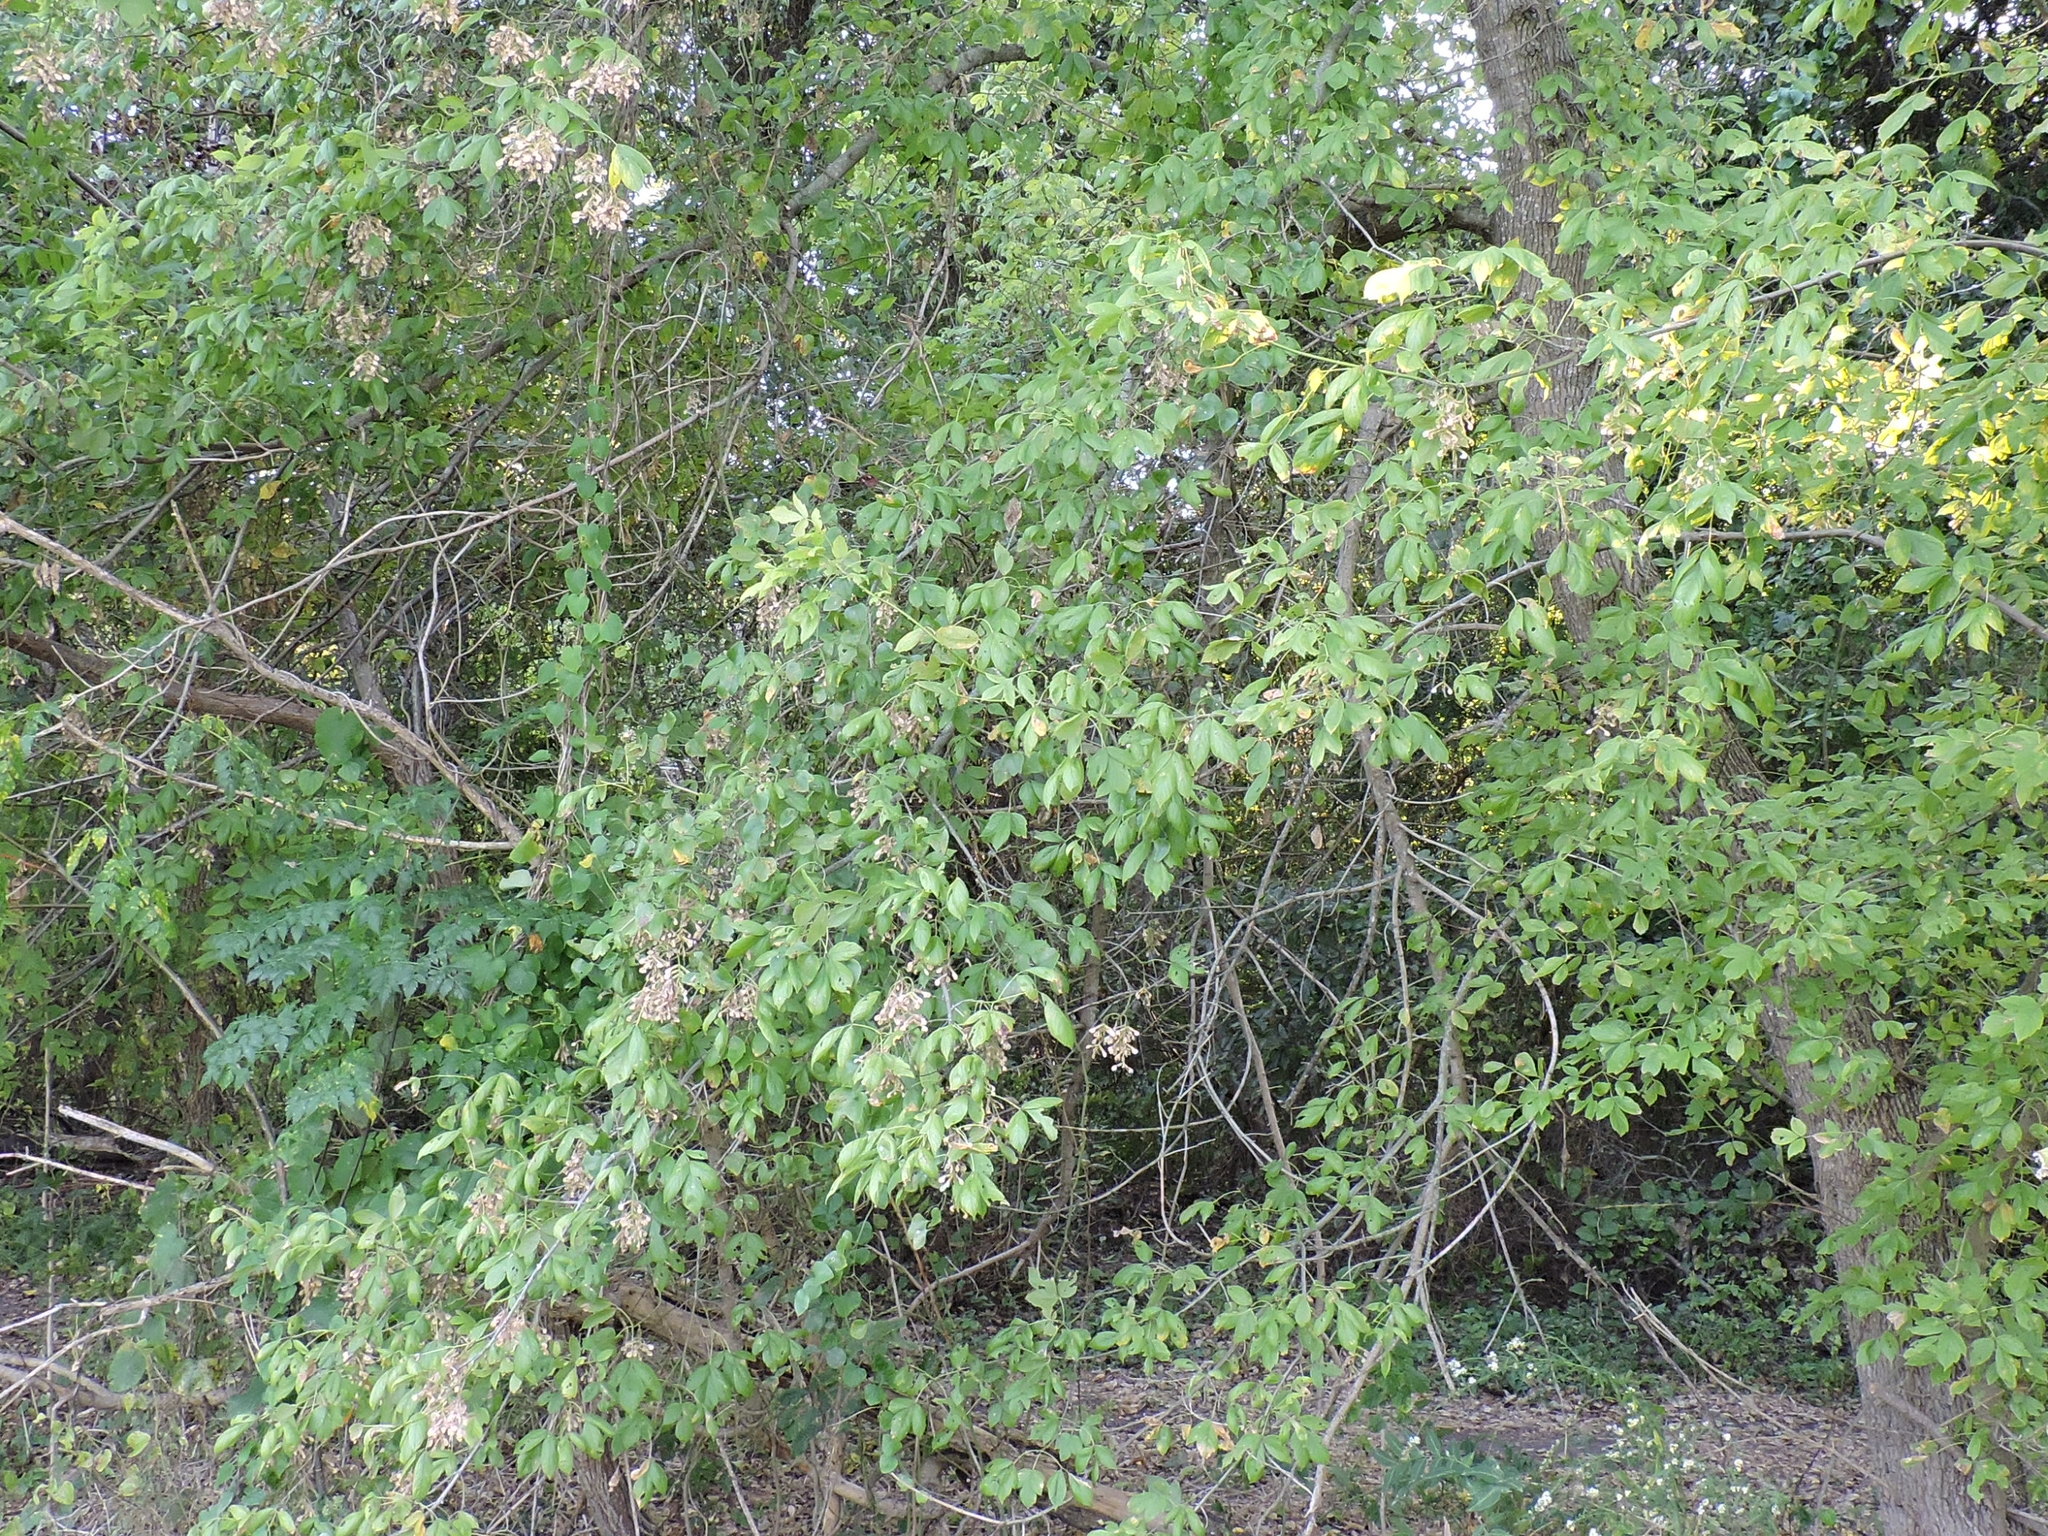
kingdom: Plantae
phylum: Tracheophyta
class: Magnoliopsida
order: Sapindales
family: Sapindaceae
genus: Acer
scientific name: Acer negundo
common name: Ashleaf maple
